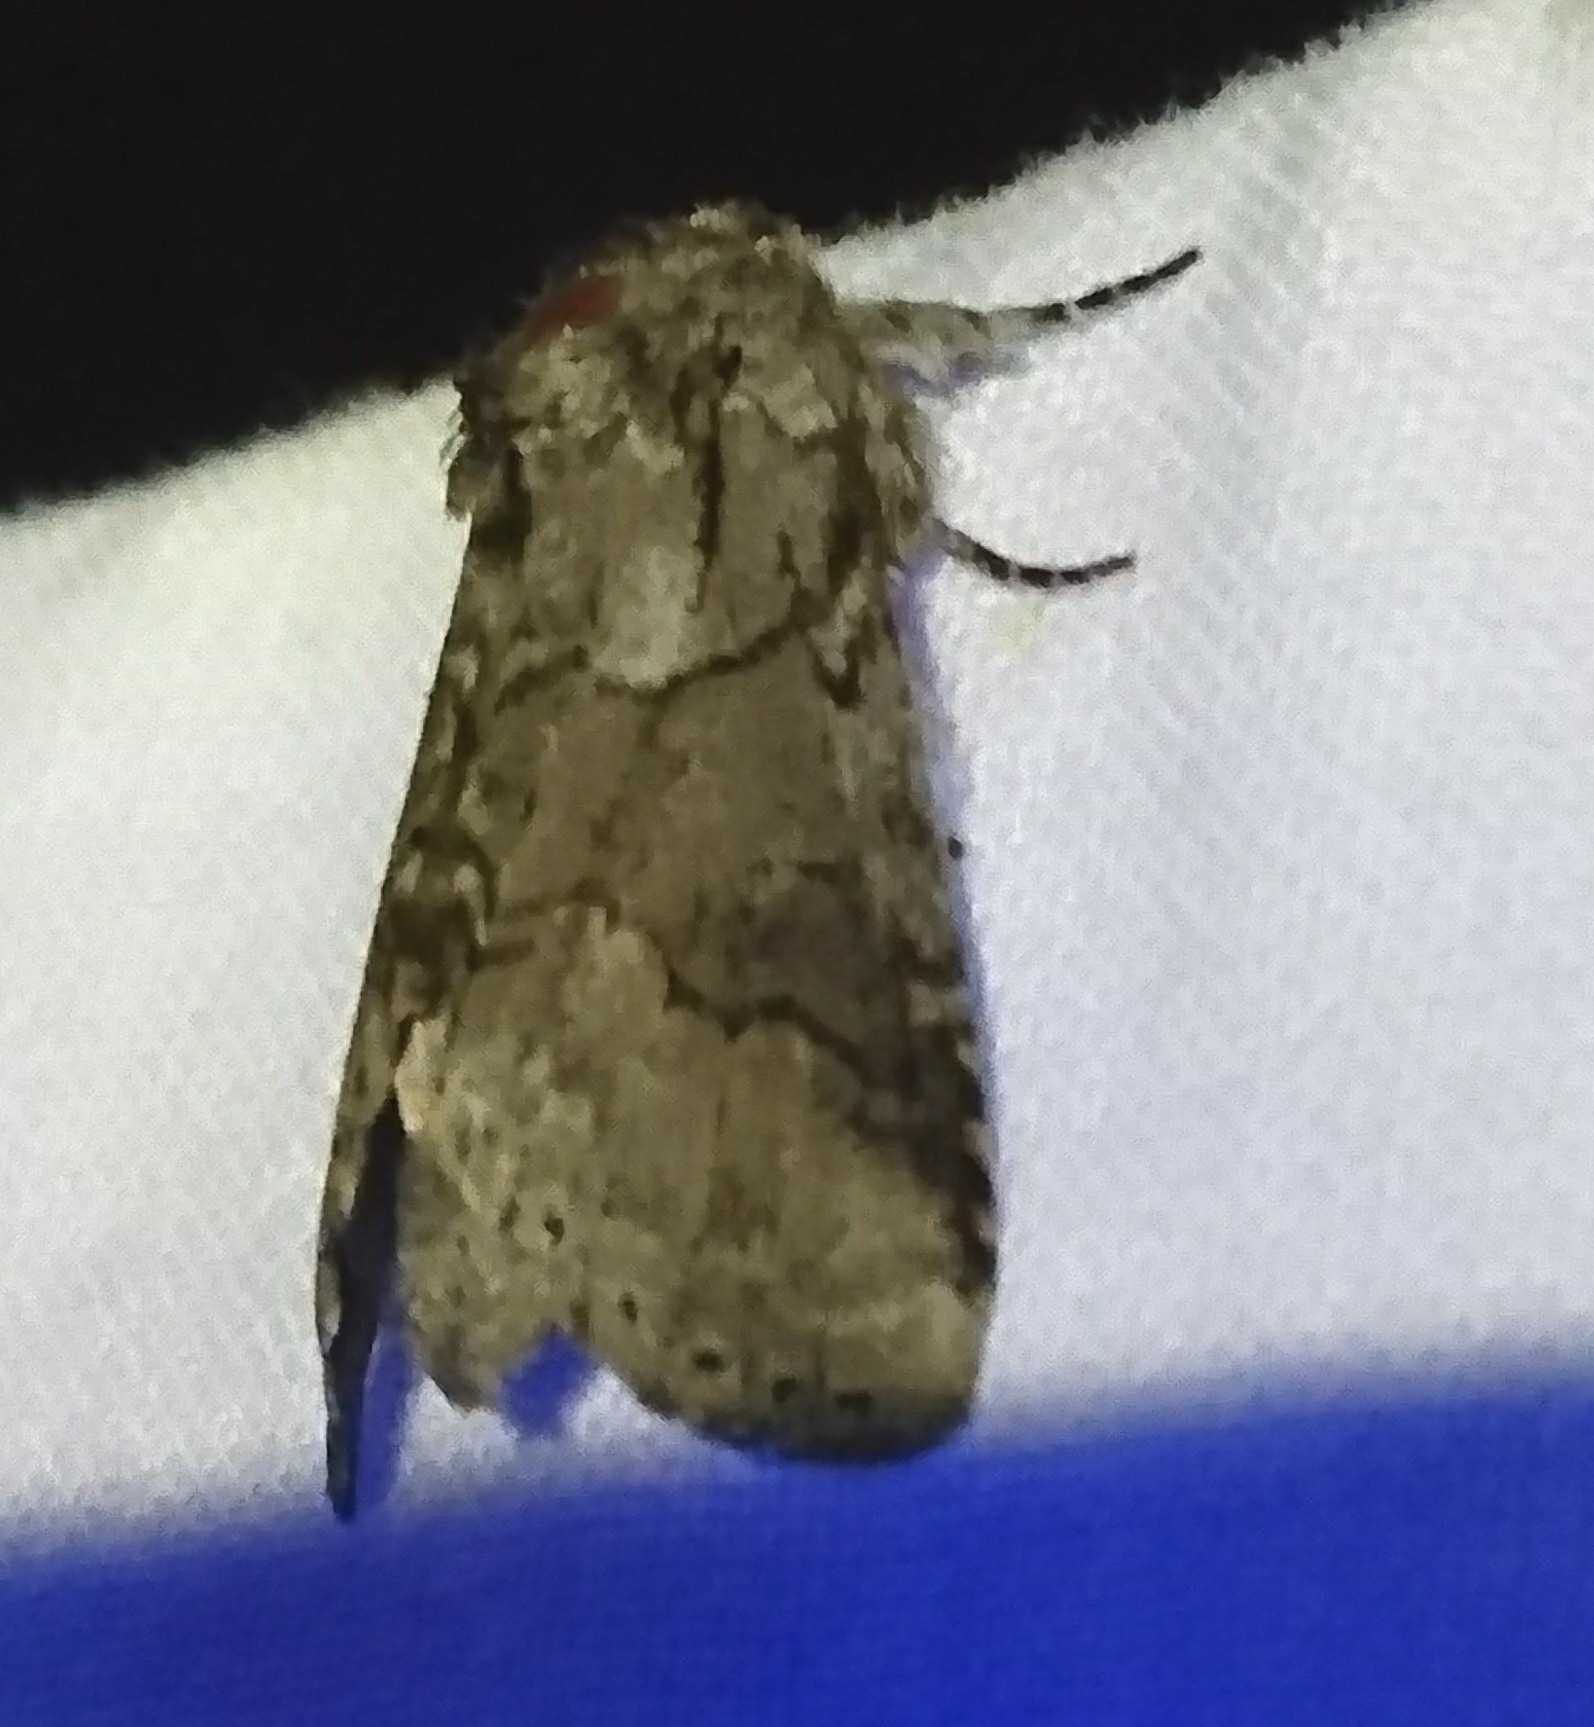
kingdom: Animalia
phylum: Arthropoda
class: Insecta
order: Lepidoptera
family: Notodontidae
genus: Lochmaeus
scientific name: Lochmaeus bilineata
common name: Double-lined prominent
